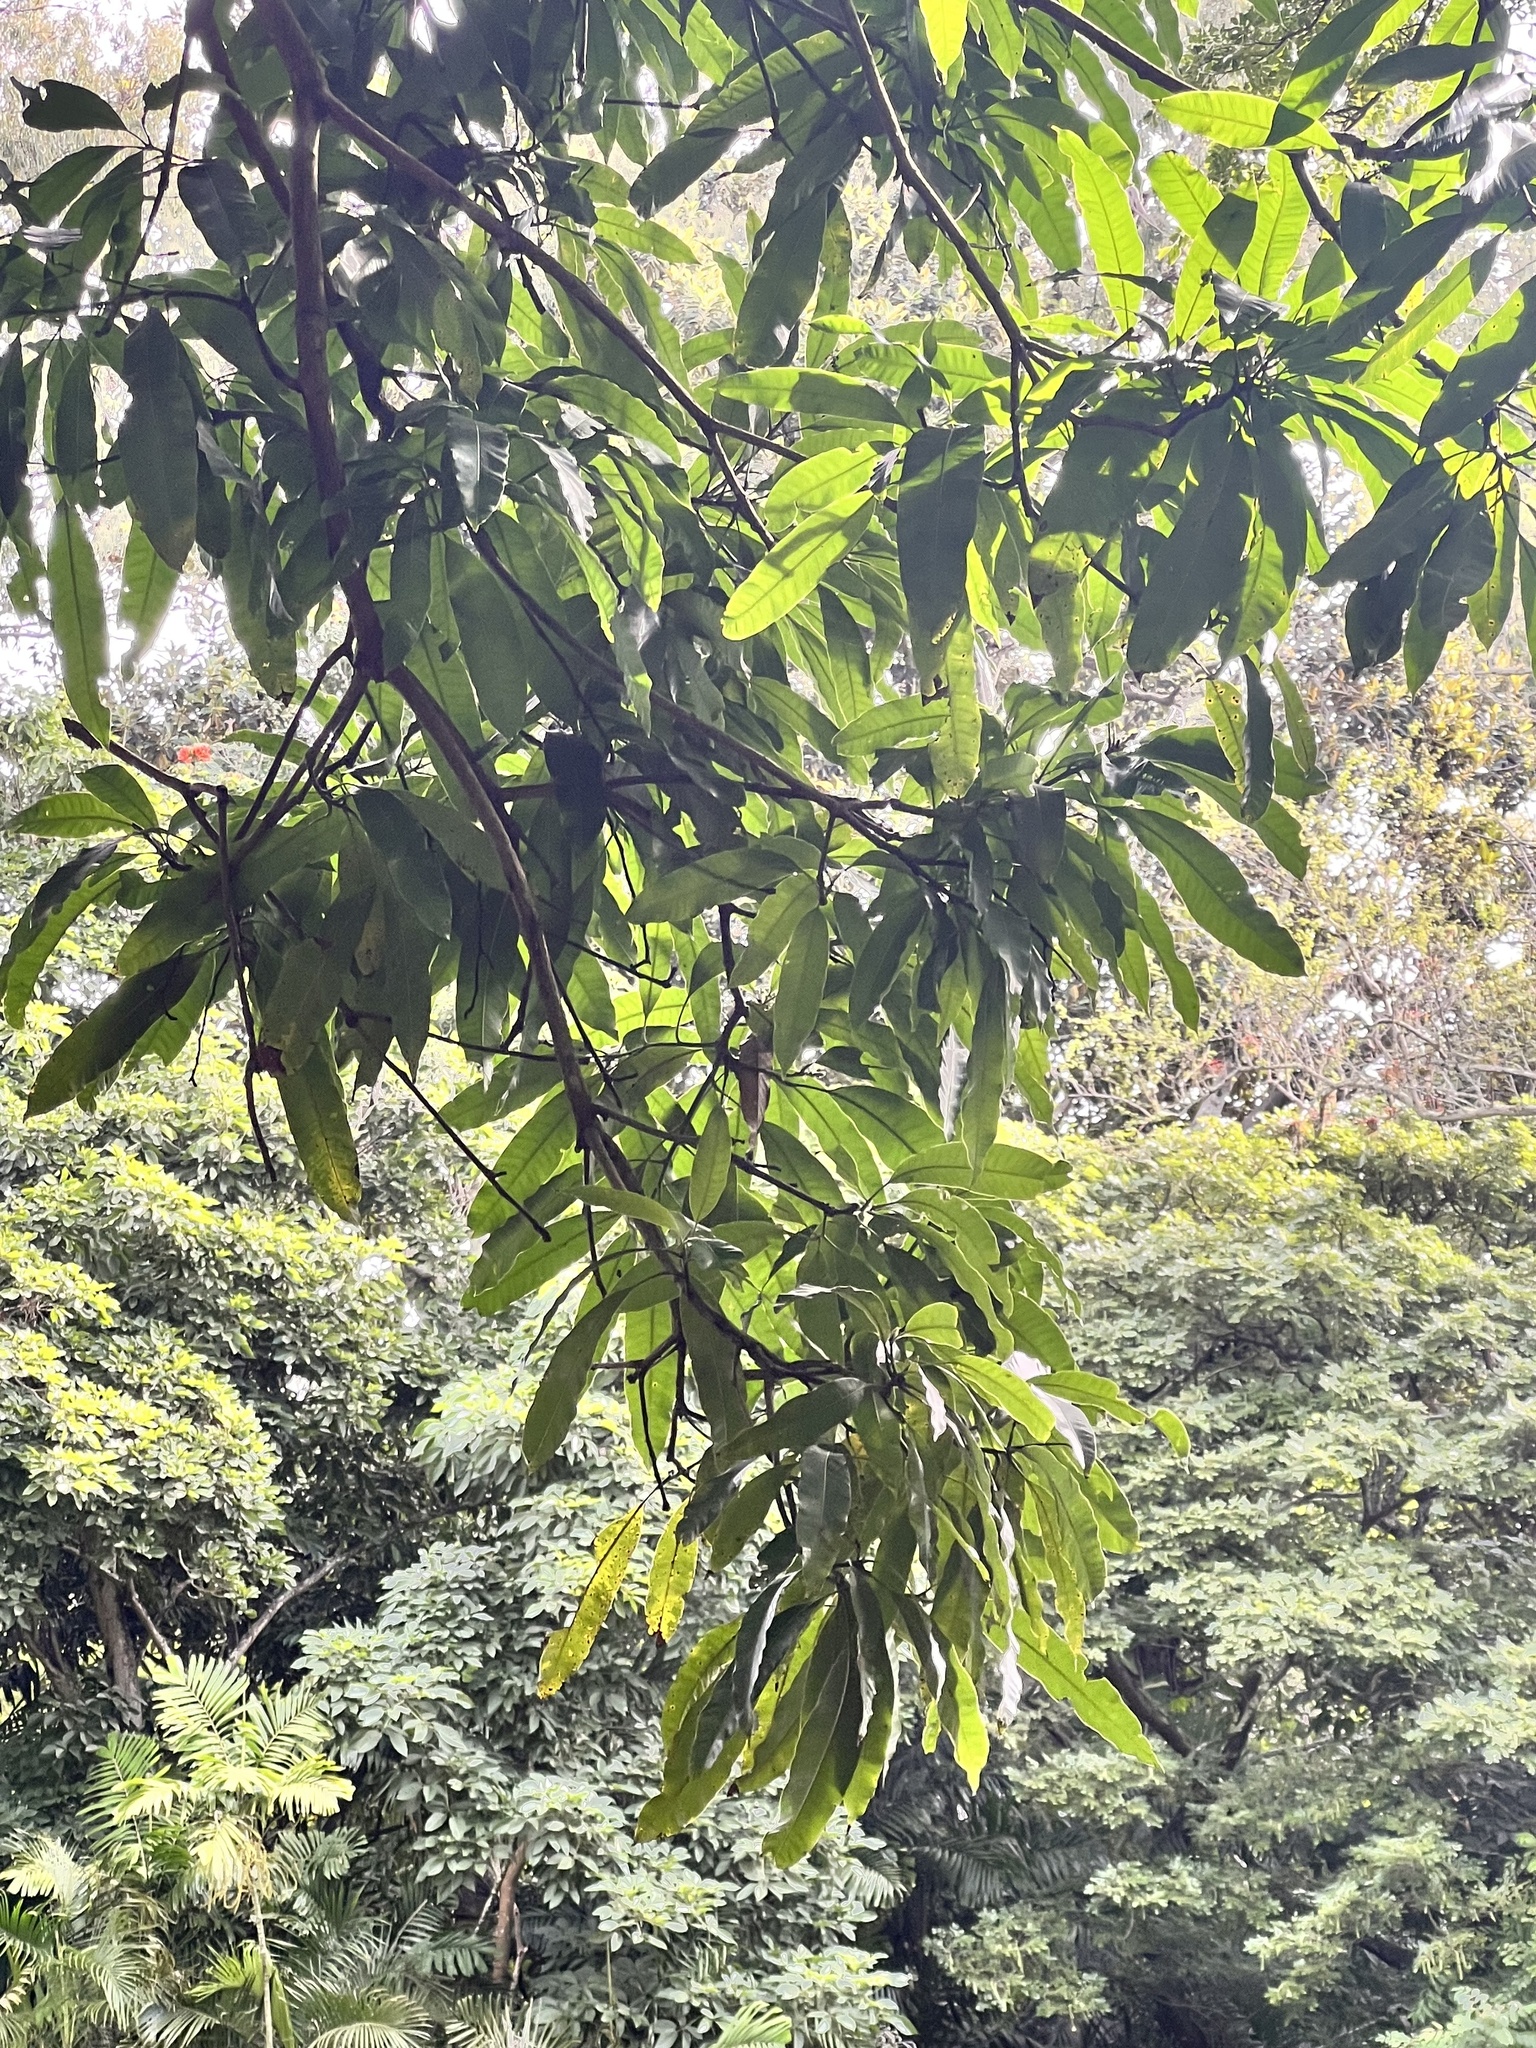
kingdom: Plantae
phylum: Tracheophyta
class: Magnoliopsida
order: Sapindales
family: Anacardiaceae
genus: Mangifera
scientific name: Mangifera indica
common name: Mango
